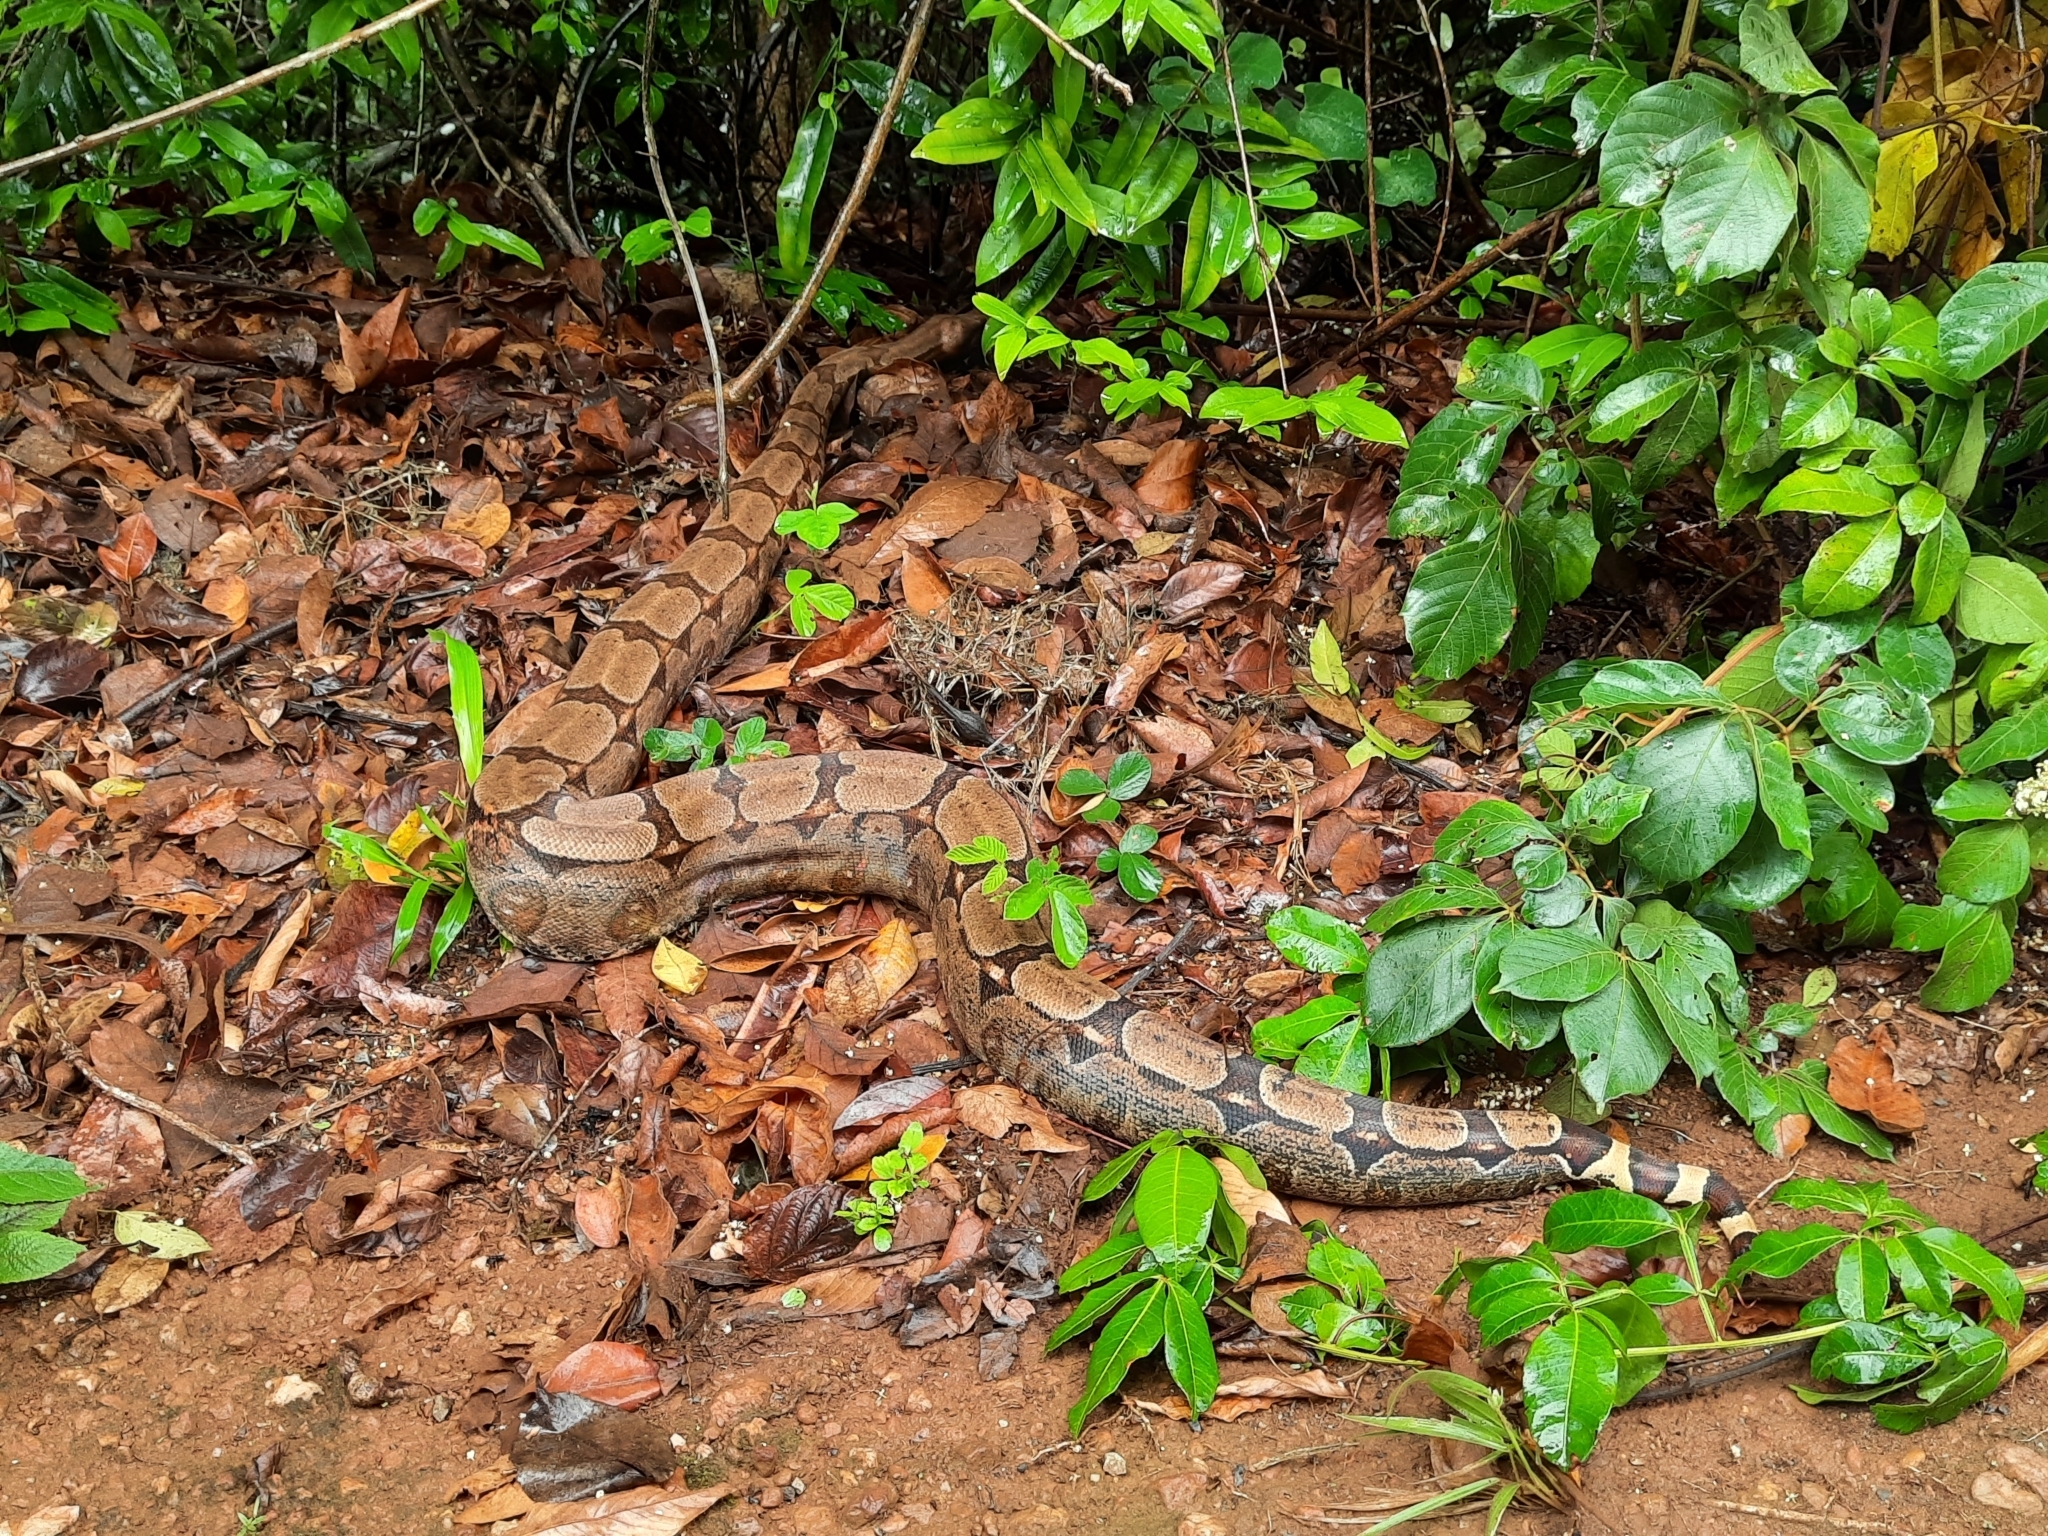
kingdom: Animalia
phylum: Chordata
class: Squamata
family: Boidae
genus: Boa
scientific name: Boa constrictor
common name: Boa constrictor
